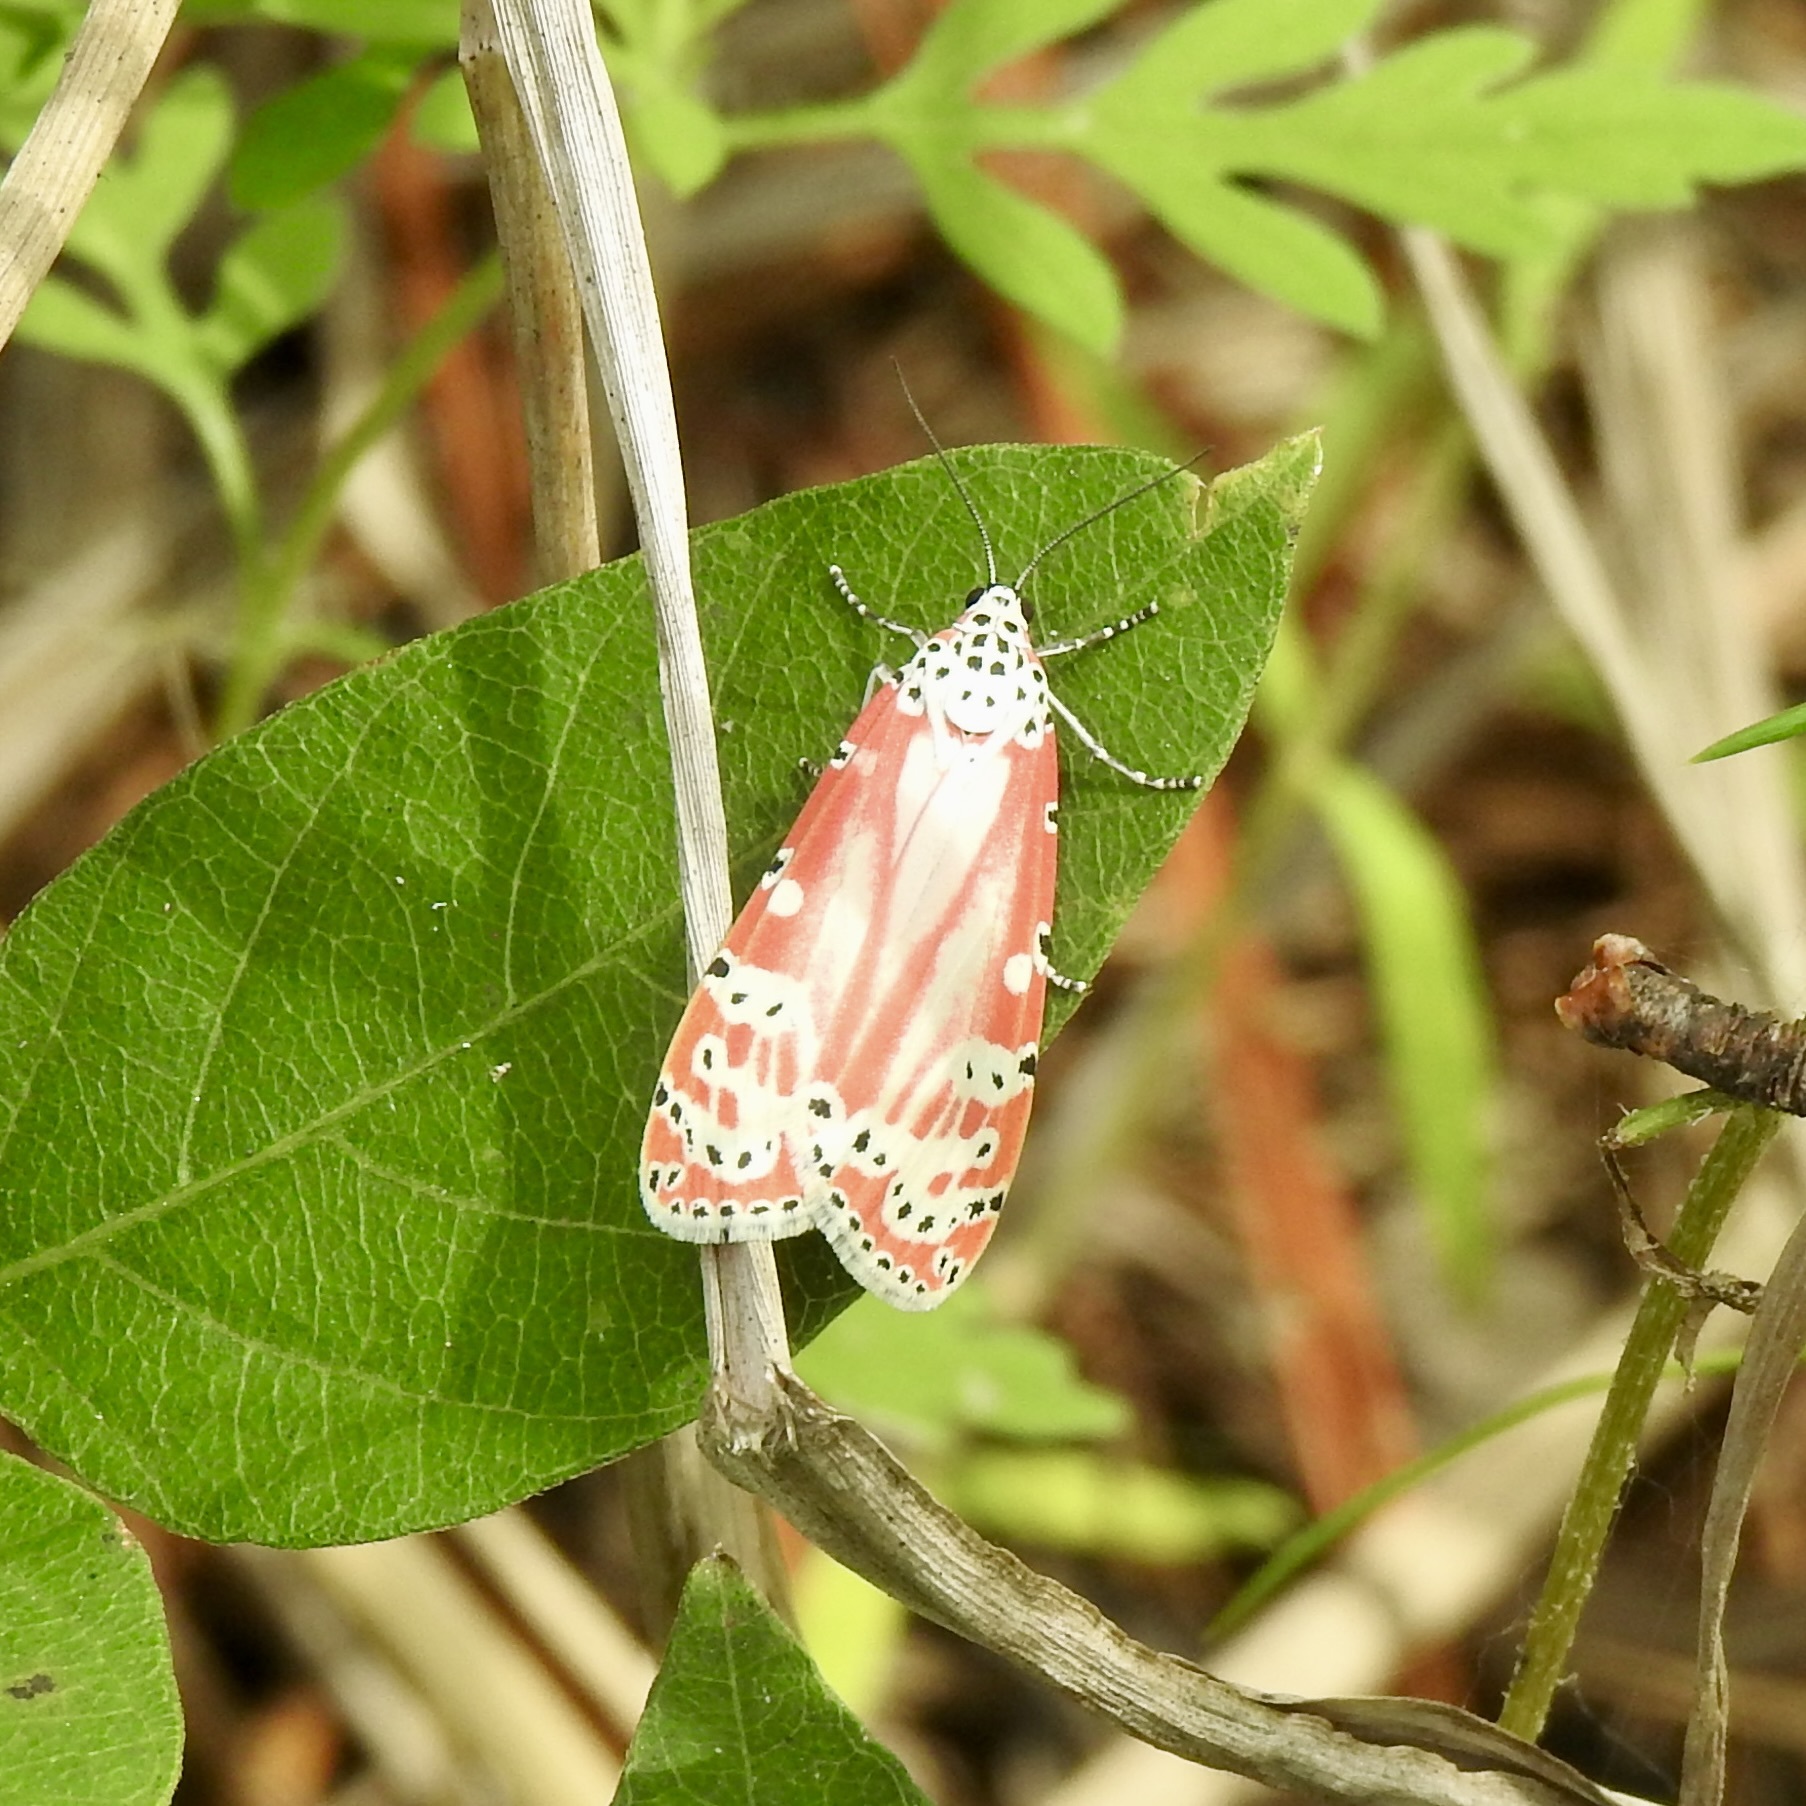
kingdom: Animalia
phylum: Arthropoda
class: Insecta
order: Lepidoptera
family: Erebidae
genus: Utetheisa
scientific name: Utetheisa ornatrix
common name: Beautiful utetheisa
